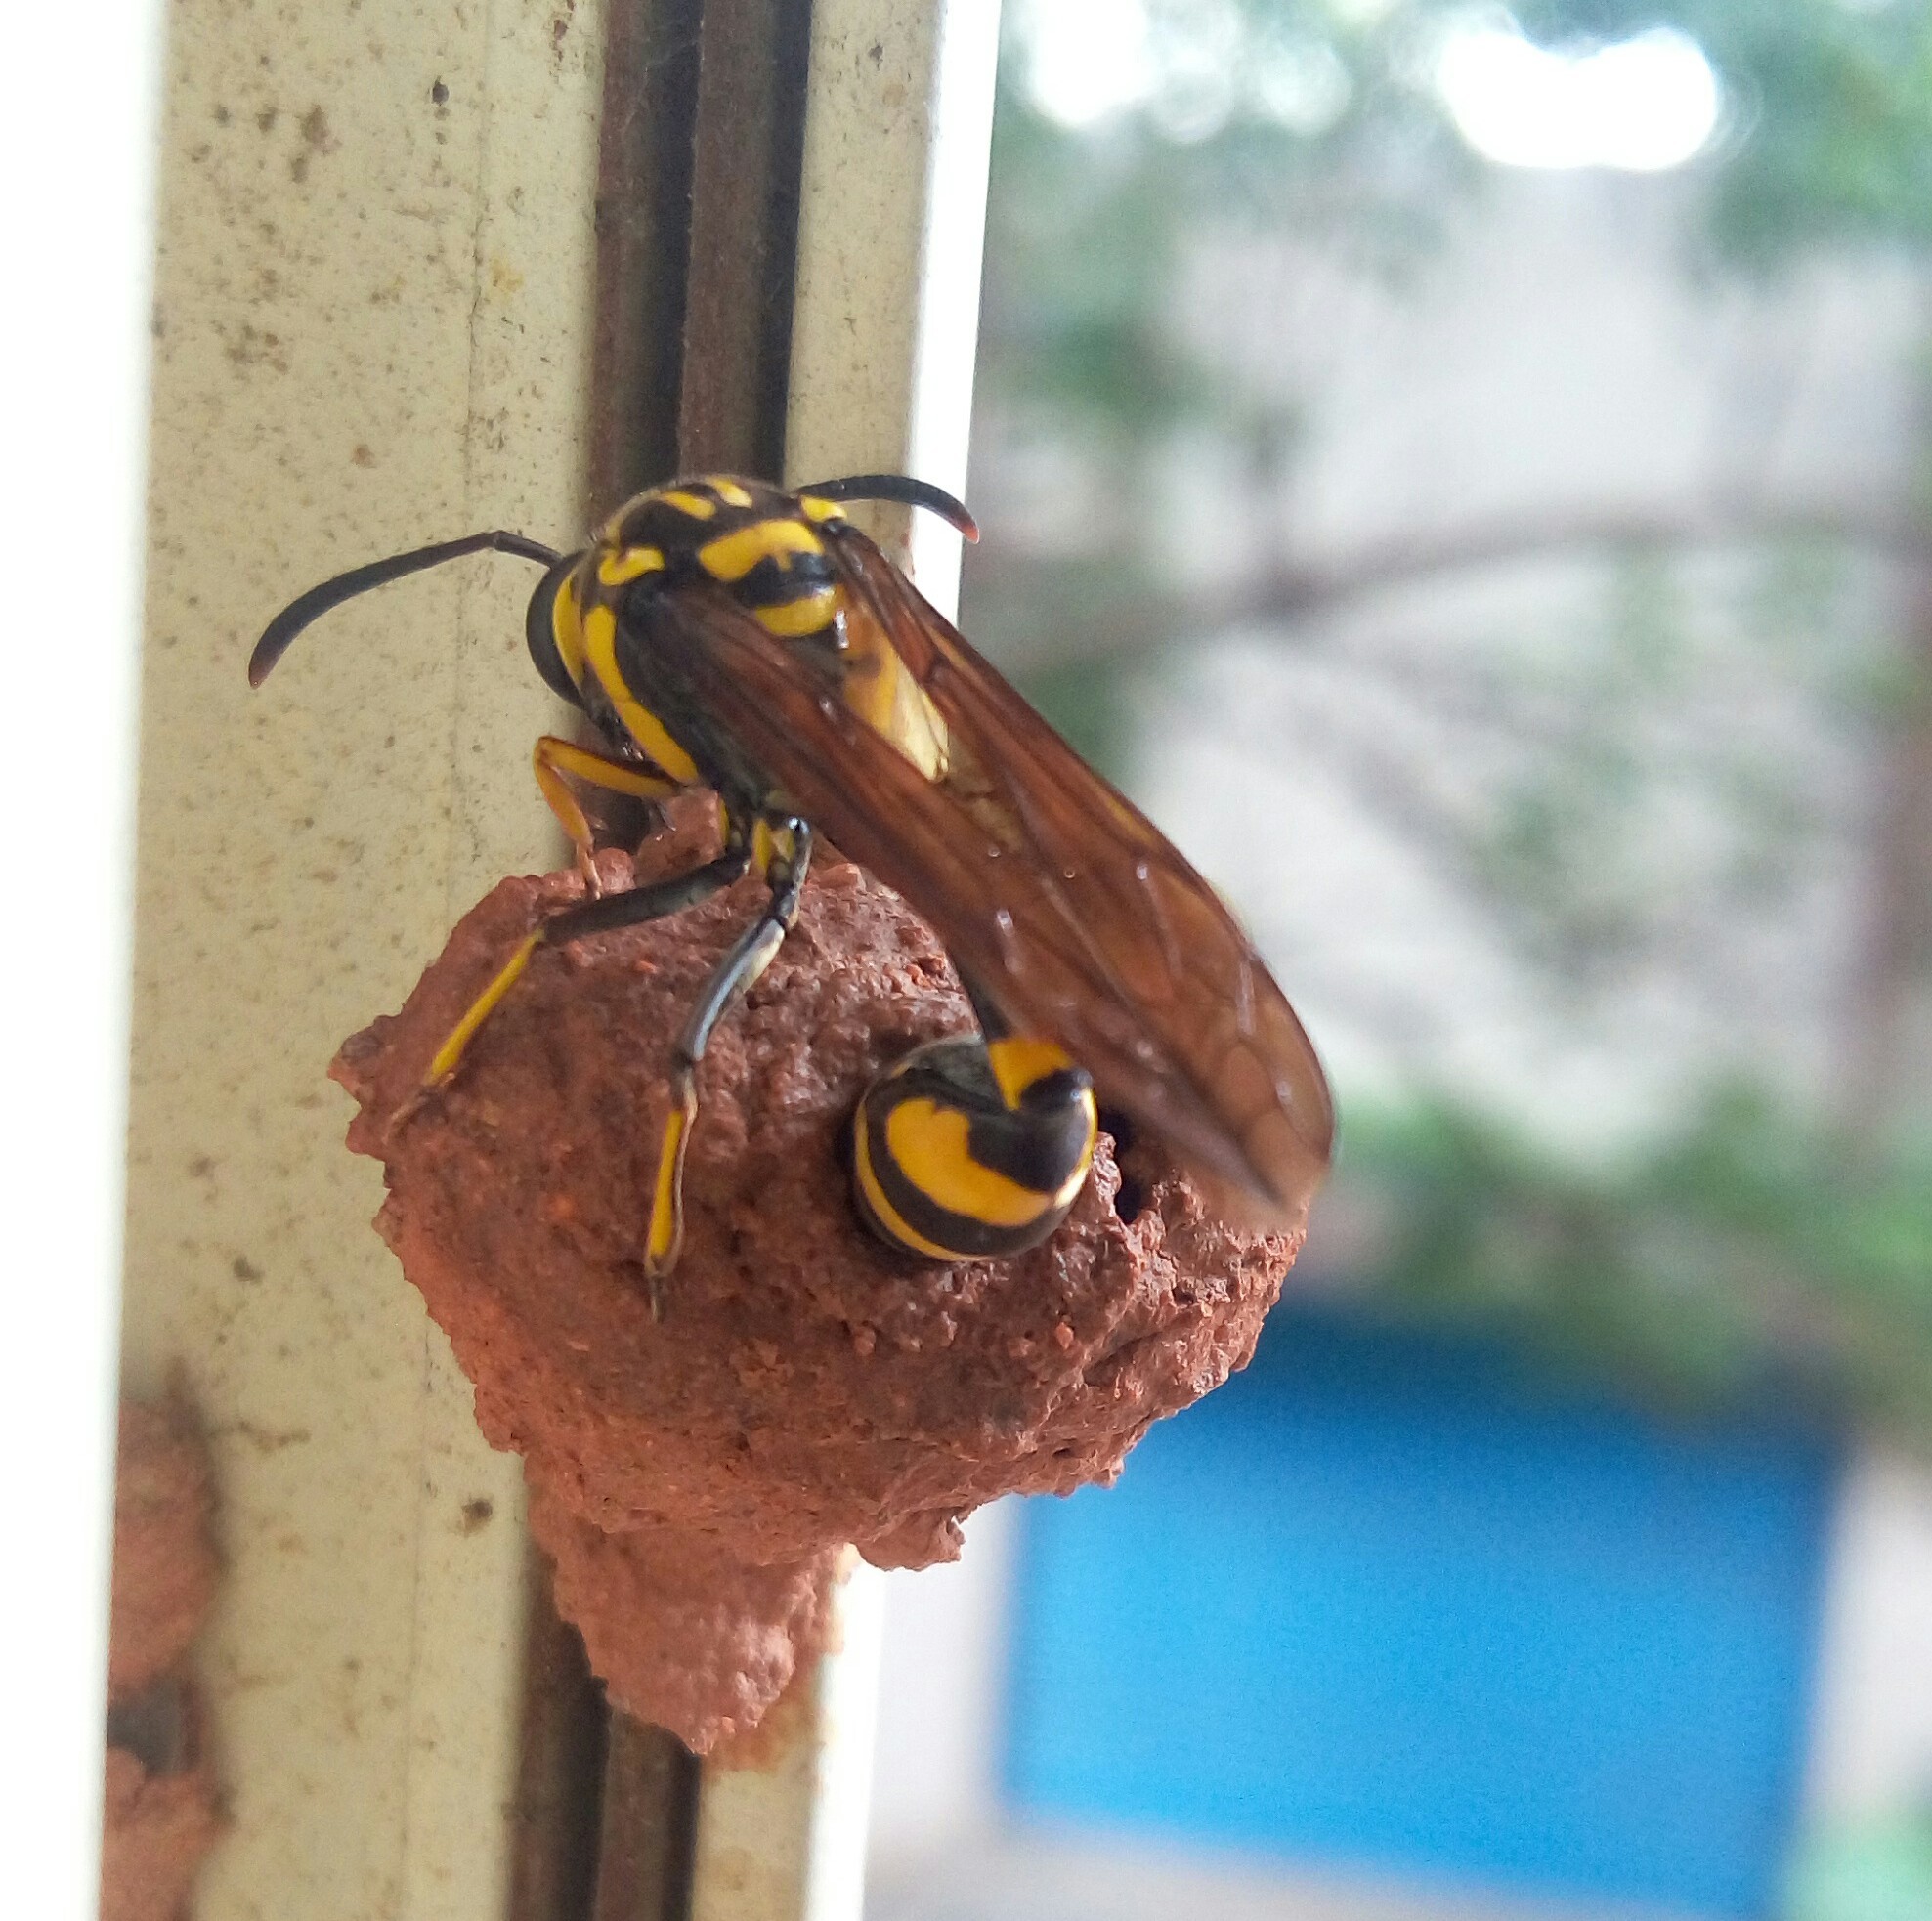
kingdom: Animalia
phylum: Arthropoda
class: Insecta
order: Hymenoptera
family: Eumenidae
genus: Phimenes
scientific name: Phimenes flavopictus
